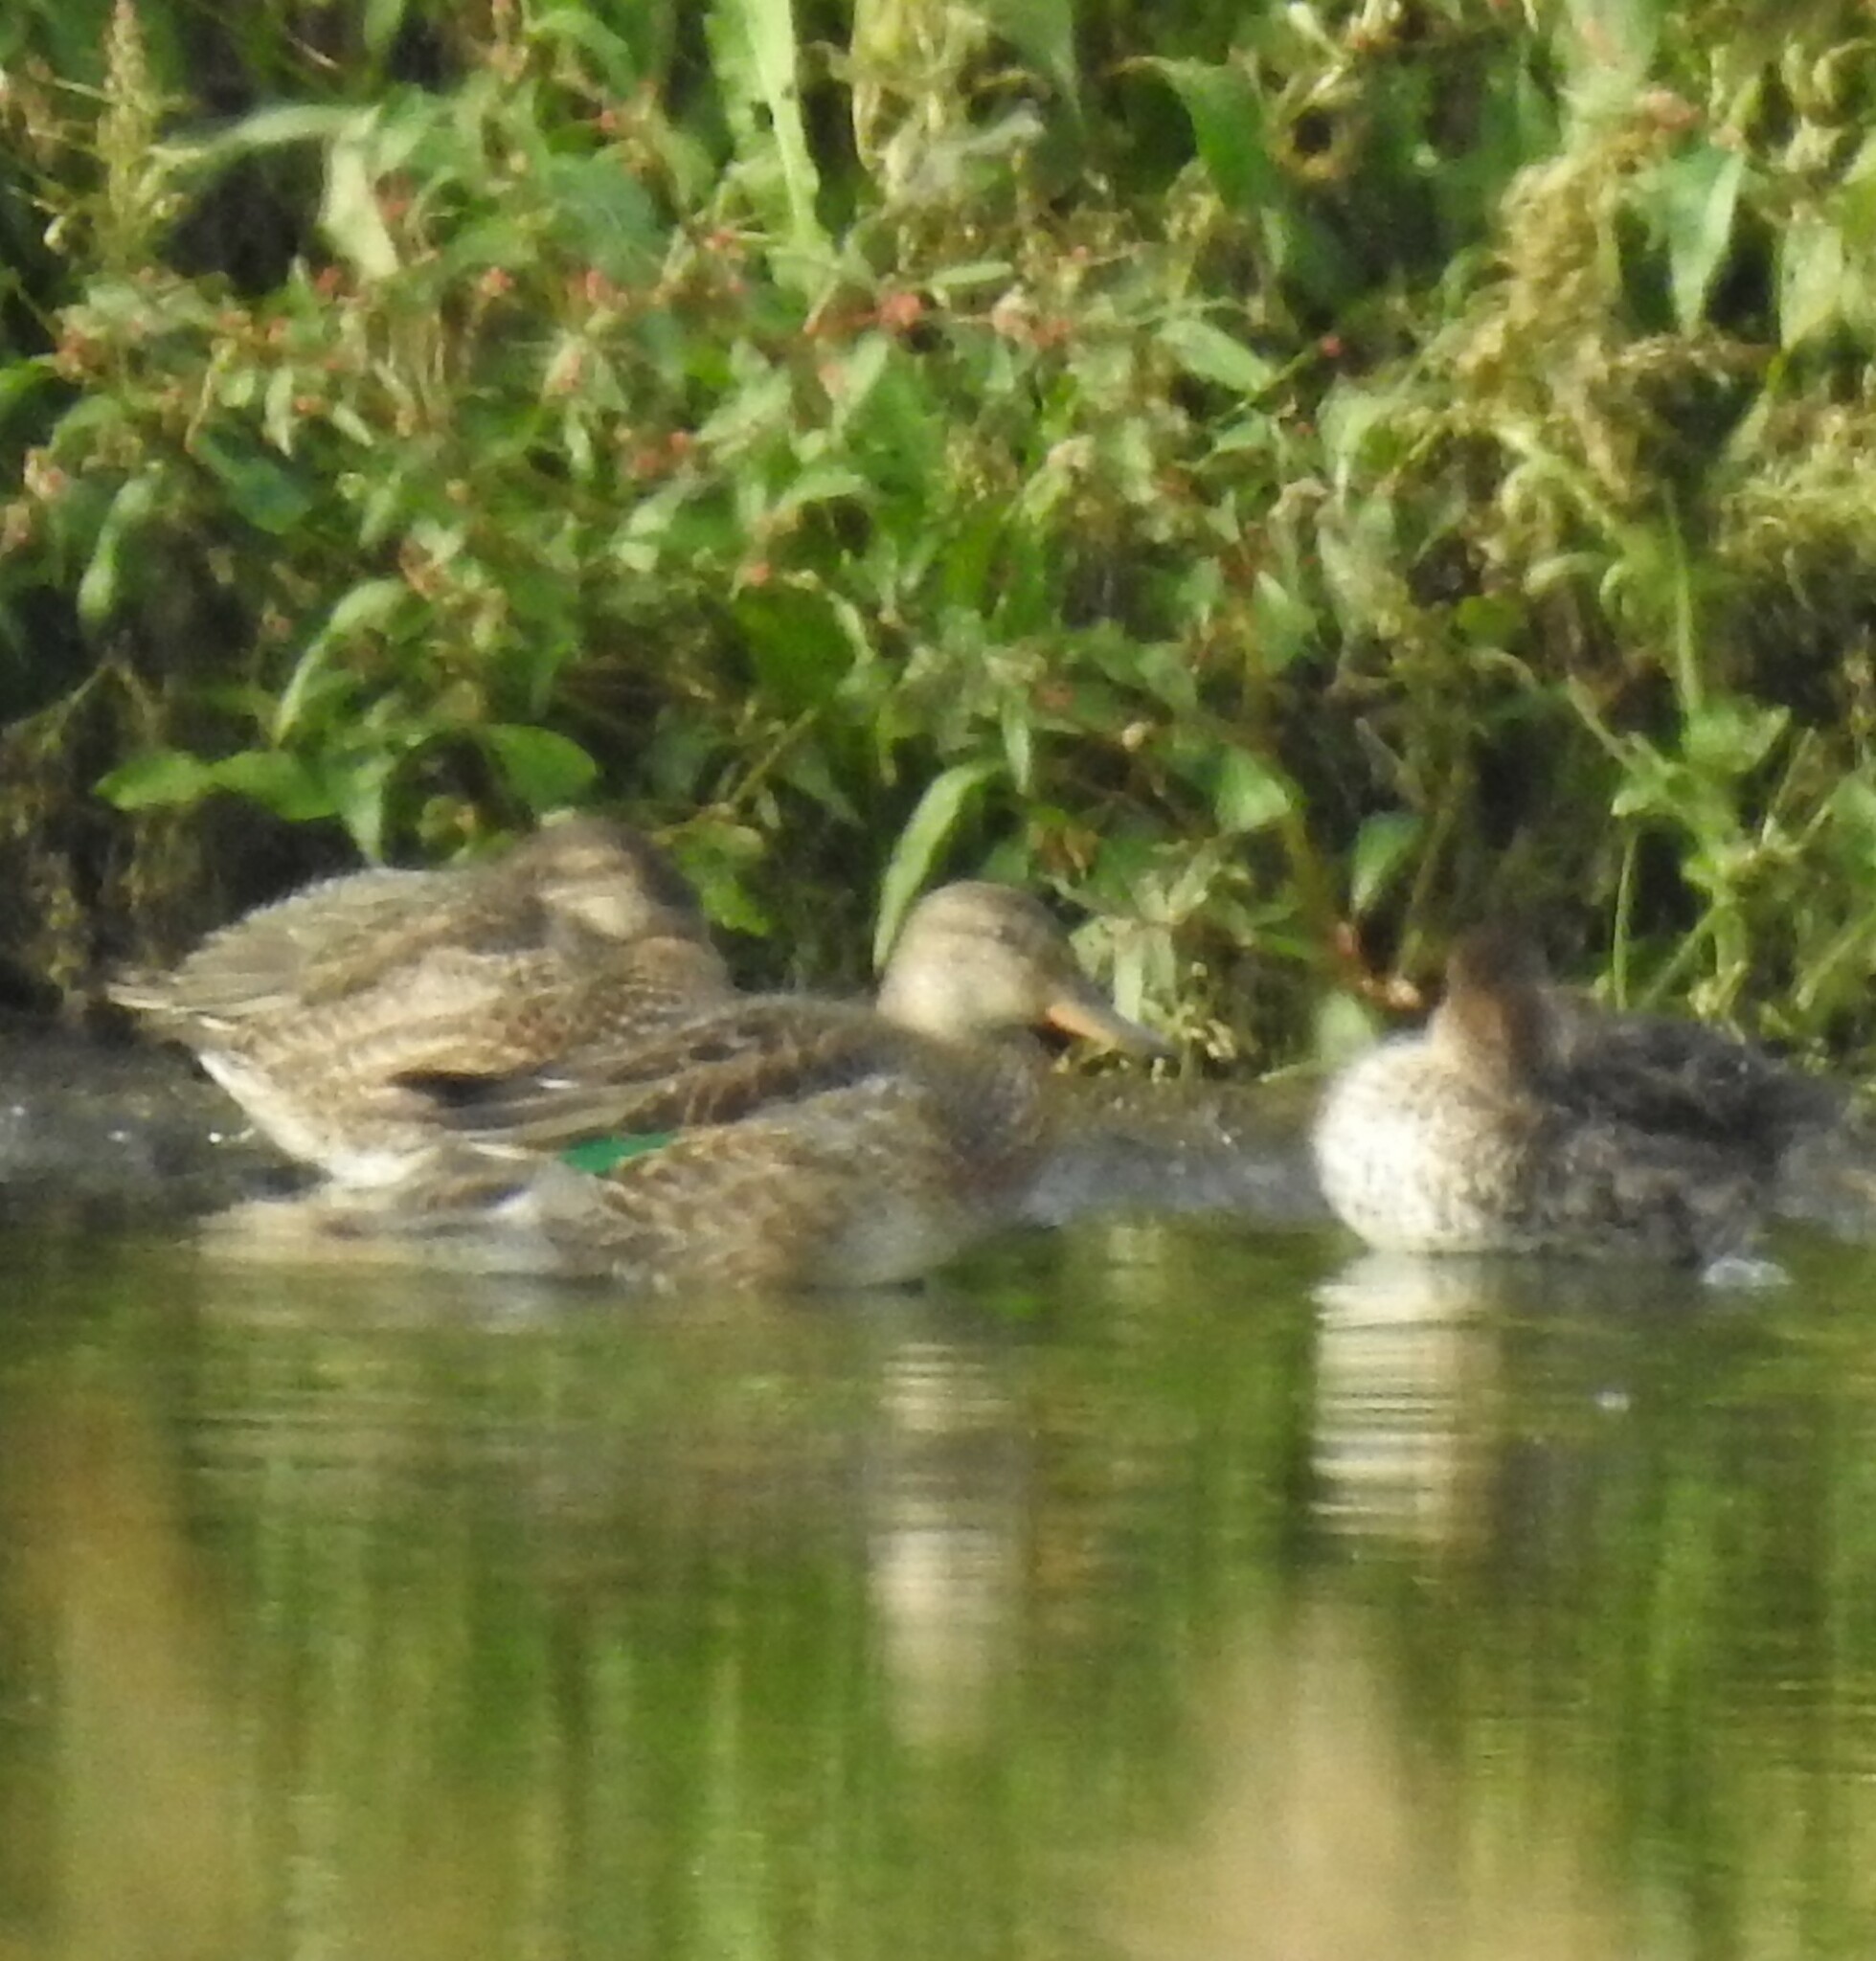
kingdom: Animalia
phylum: Chordata
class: Aves
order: Anseriformes
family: Anatidae
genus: Anas
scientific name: Anas crecca
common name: Eurasian teal
